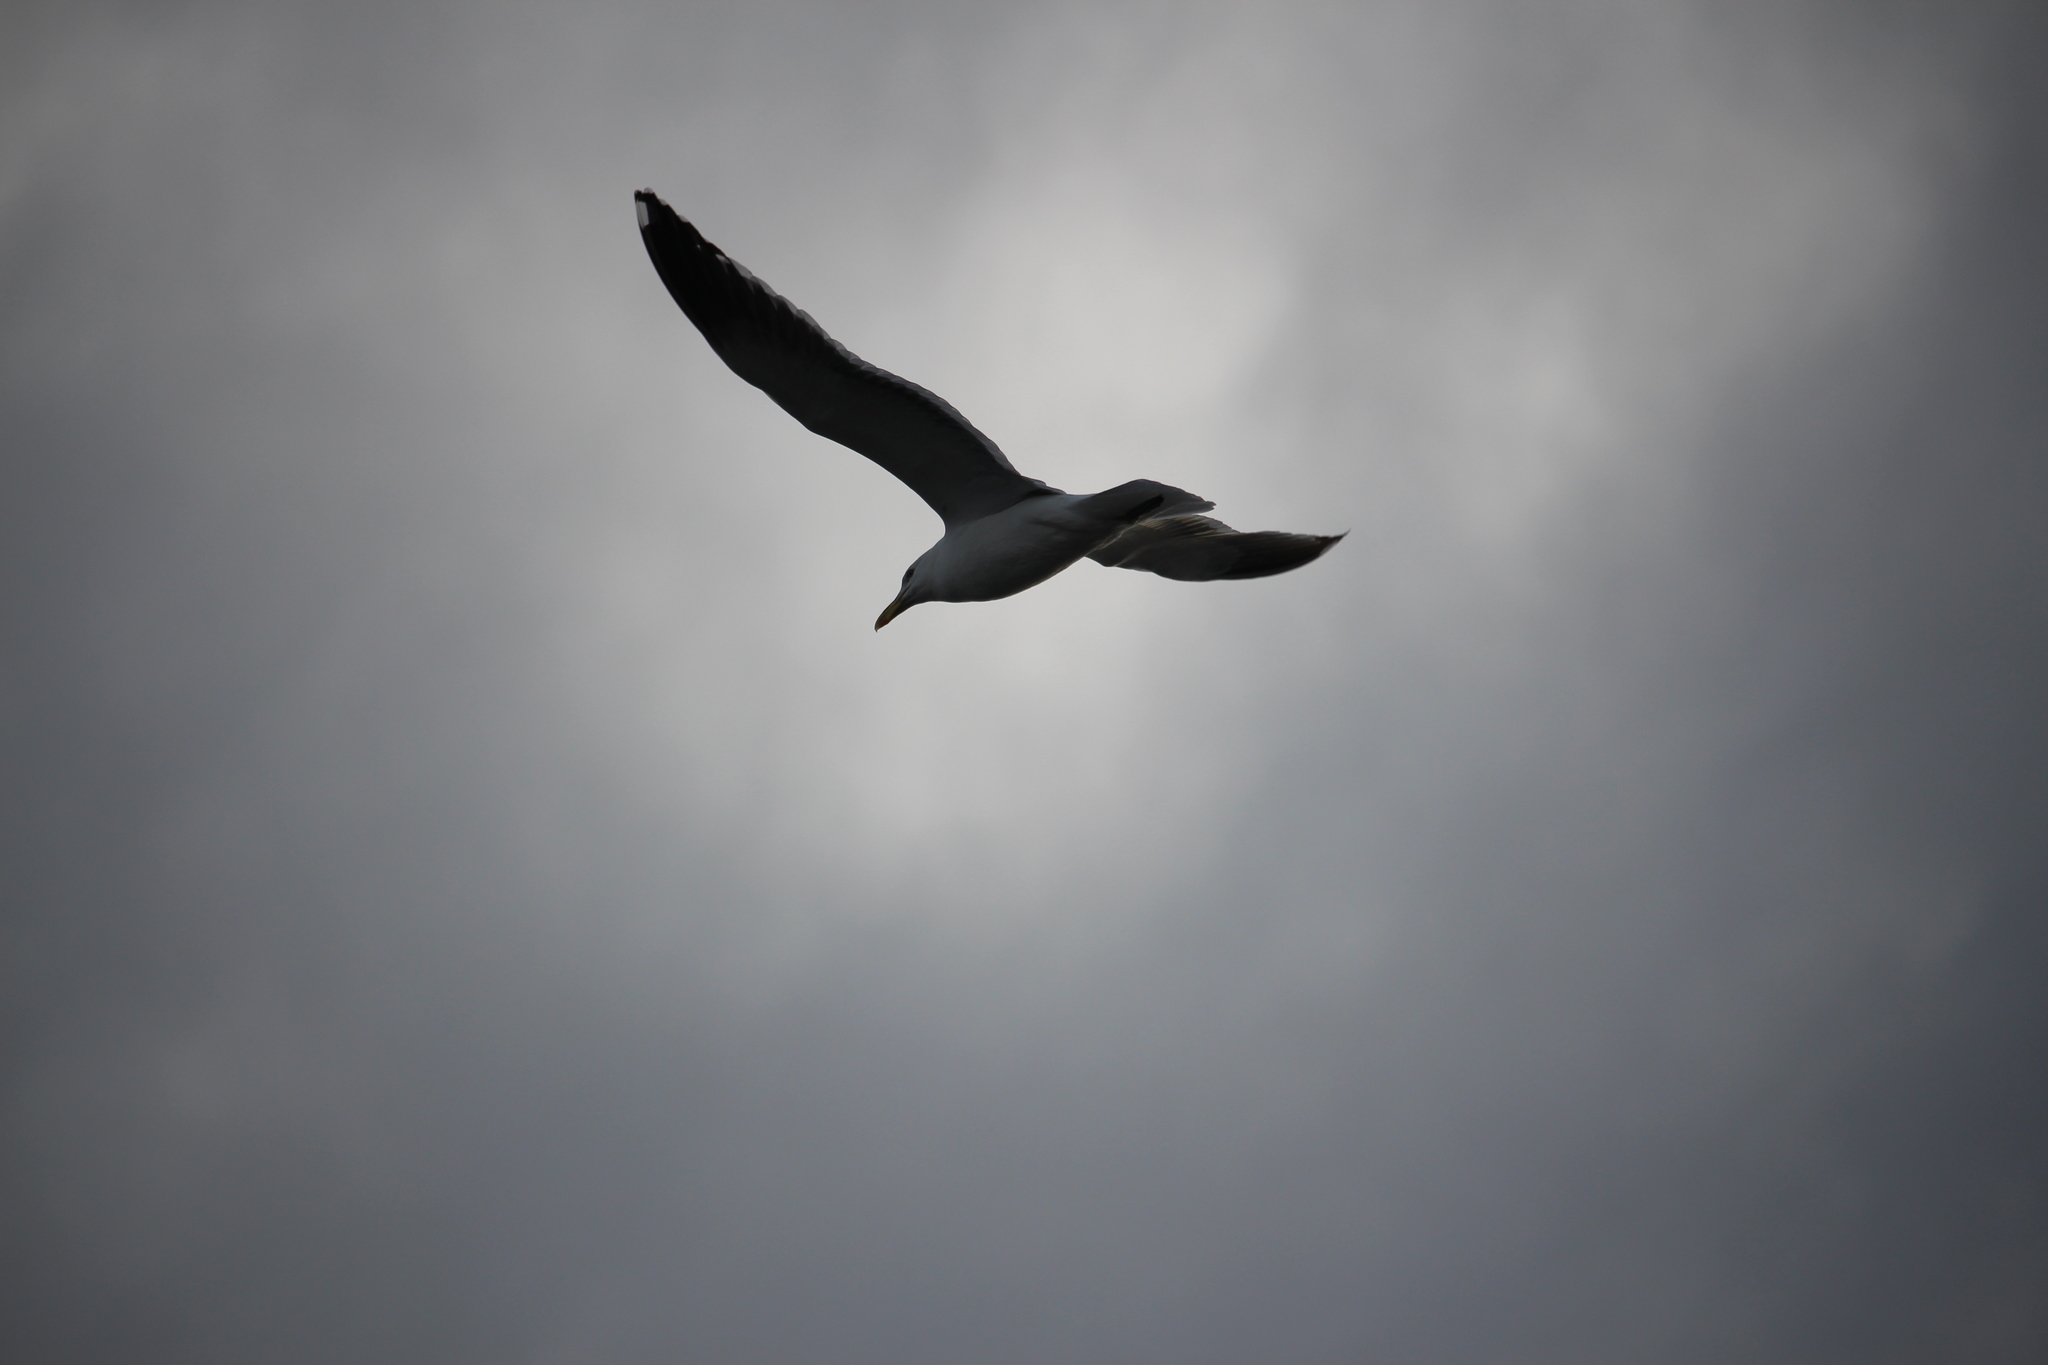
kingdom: Animalia
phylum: Chordata
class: Aves
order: Charadriiformes
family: Laridae
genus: Larus
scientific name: Larus dominicanus
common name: Kelp gull
